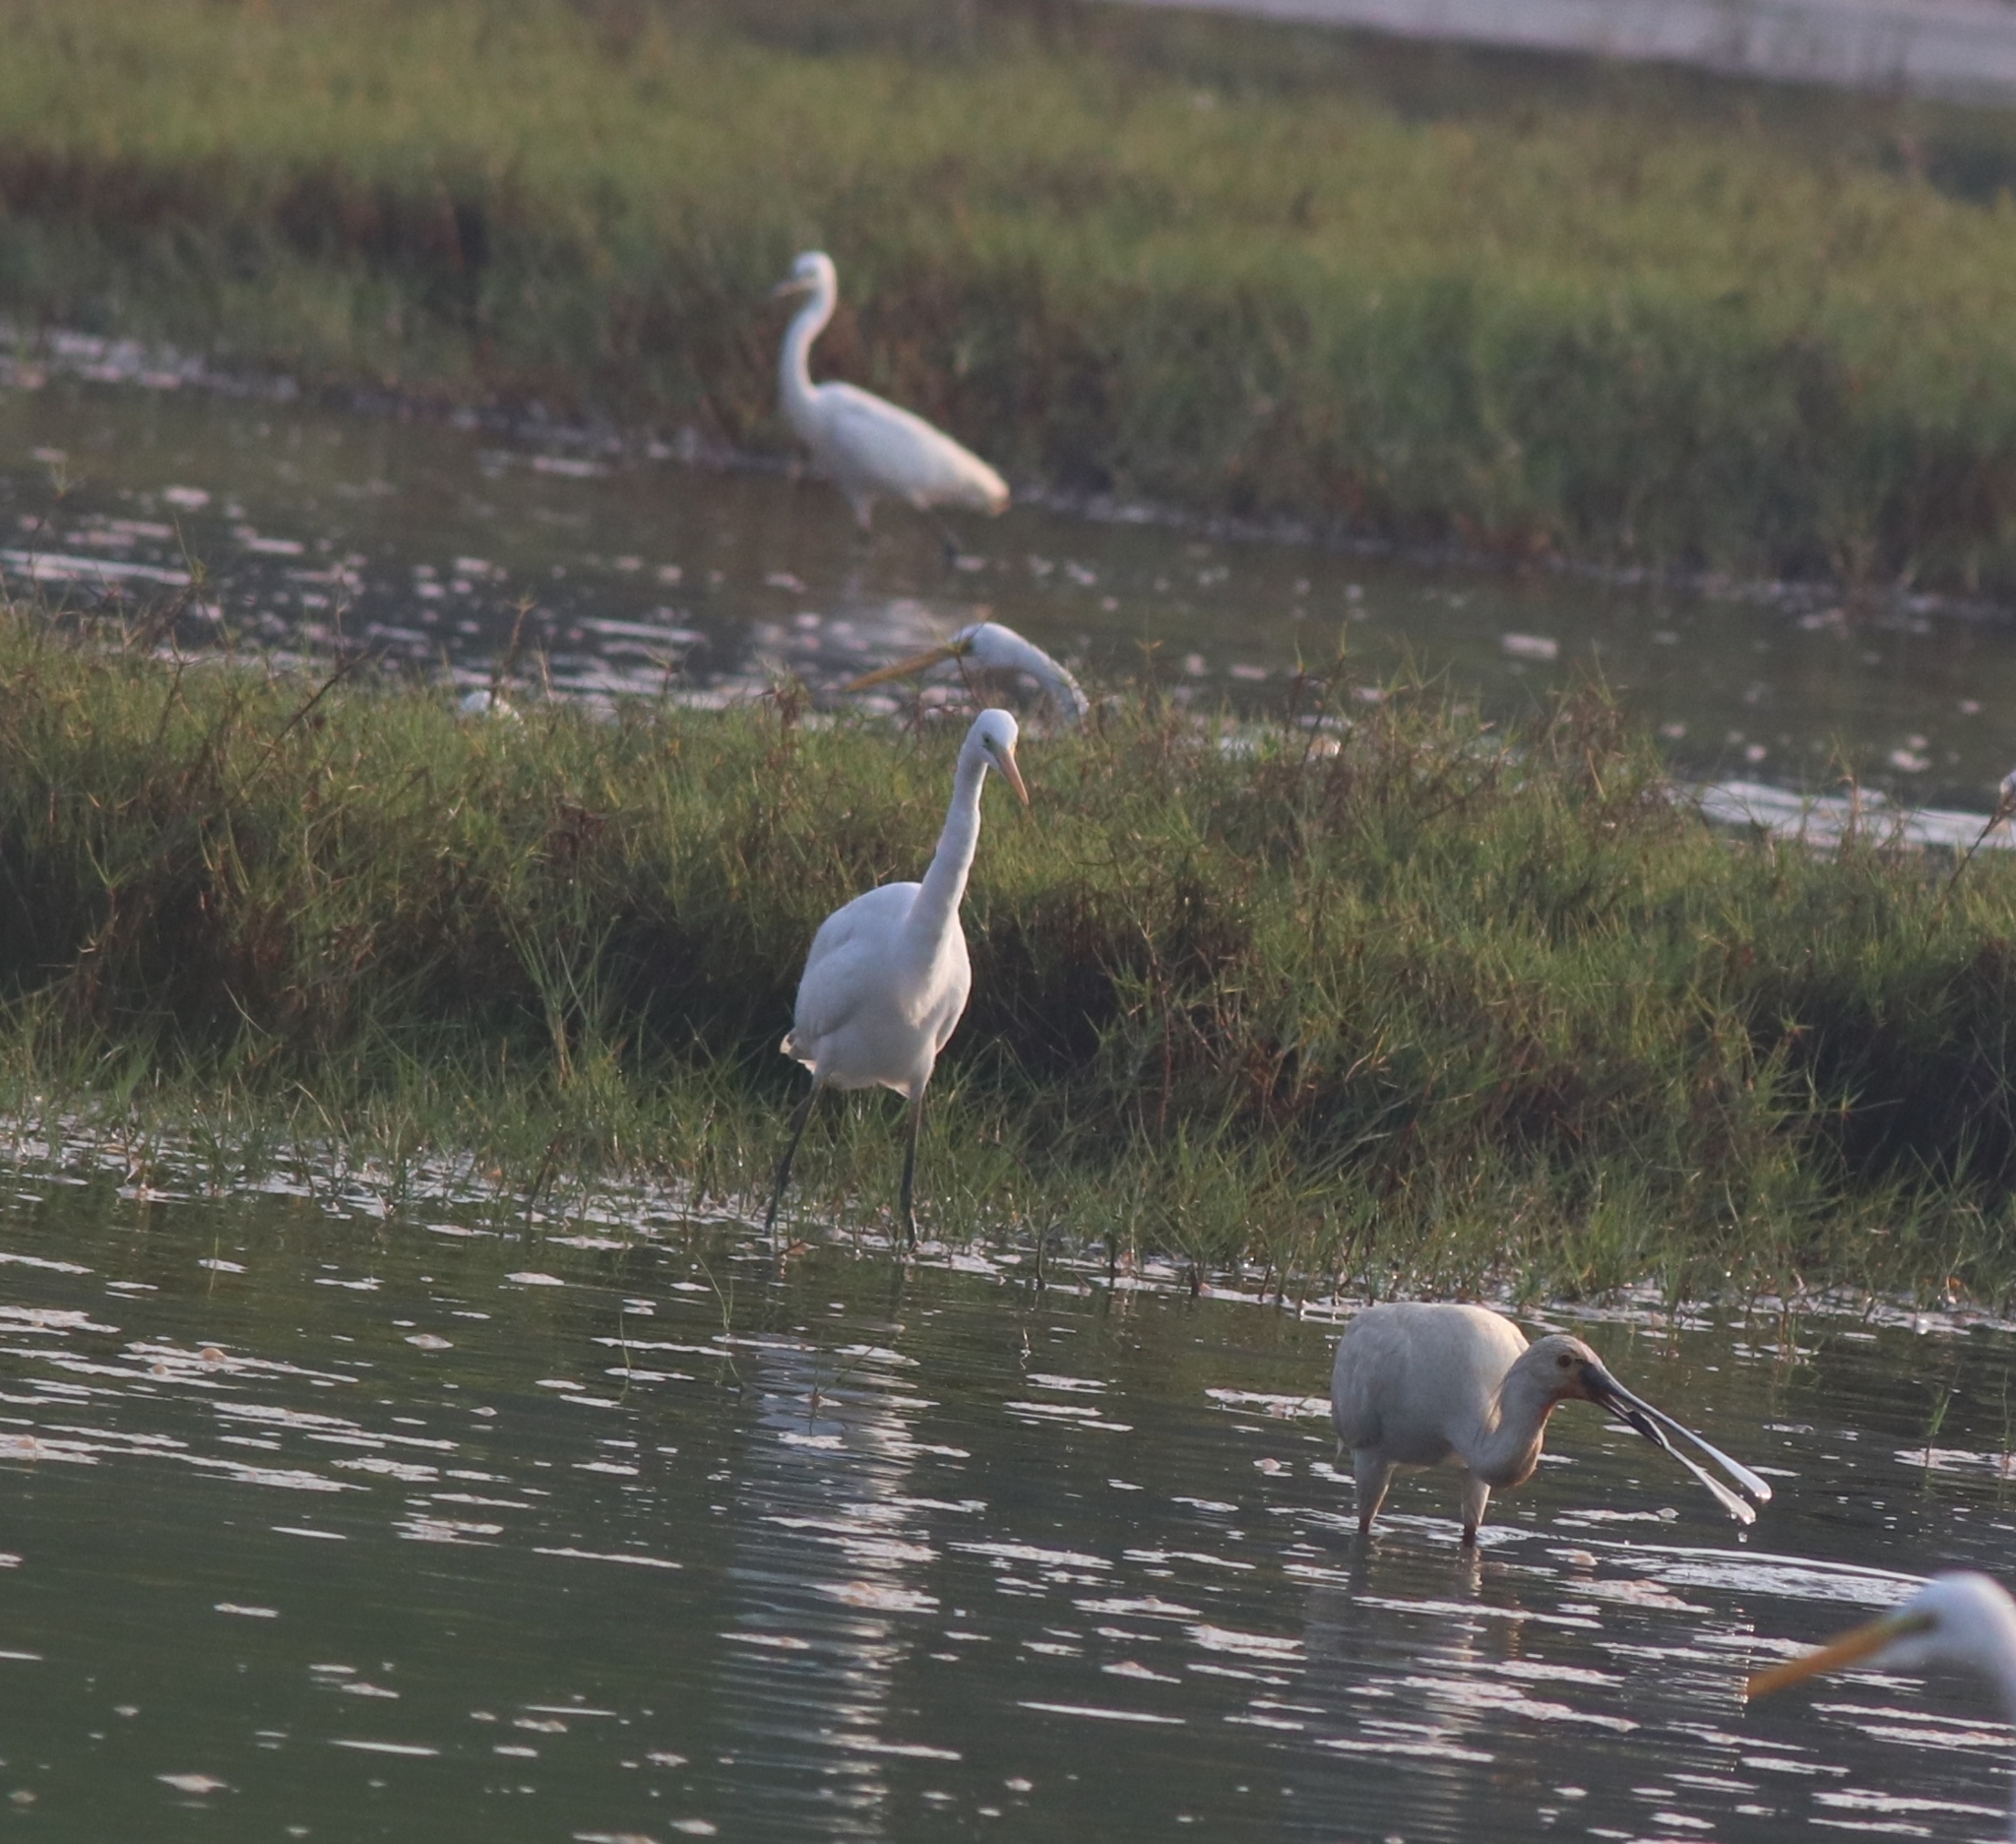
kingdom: Animalia
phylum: Chordata
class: Aves
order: Pelecaniformes
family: Threskiornithidae
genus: Platalea
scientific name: Platalea leucorodia
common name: Eurasian spoonbill
